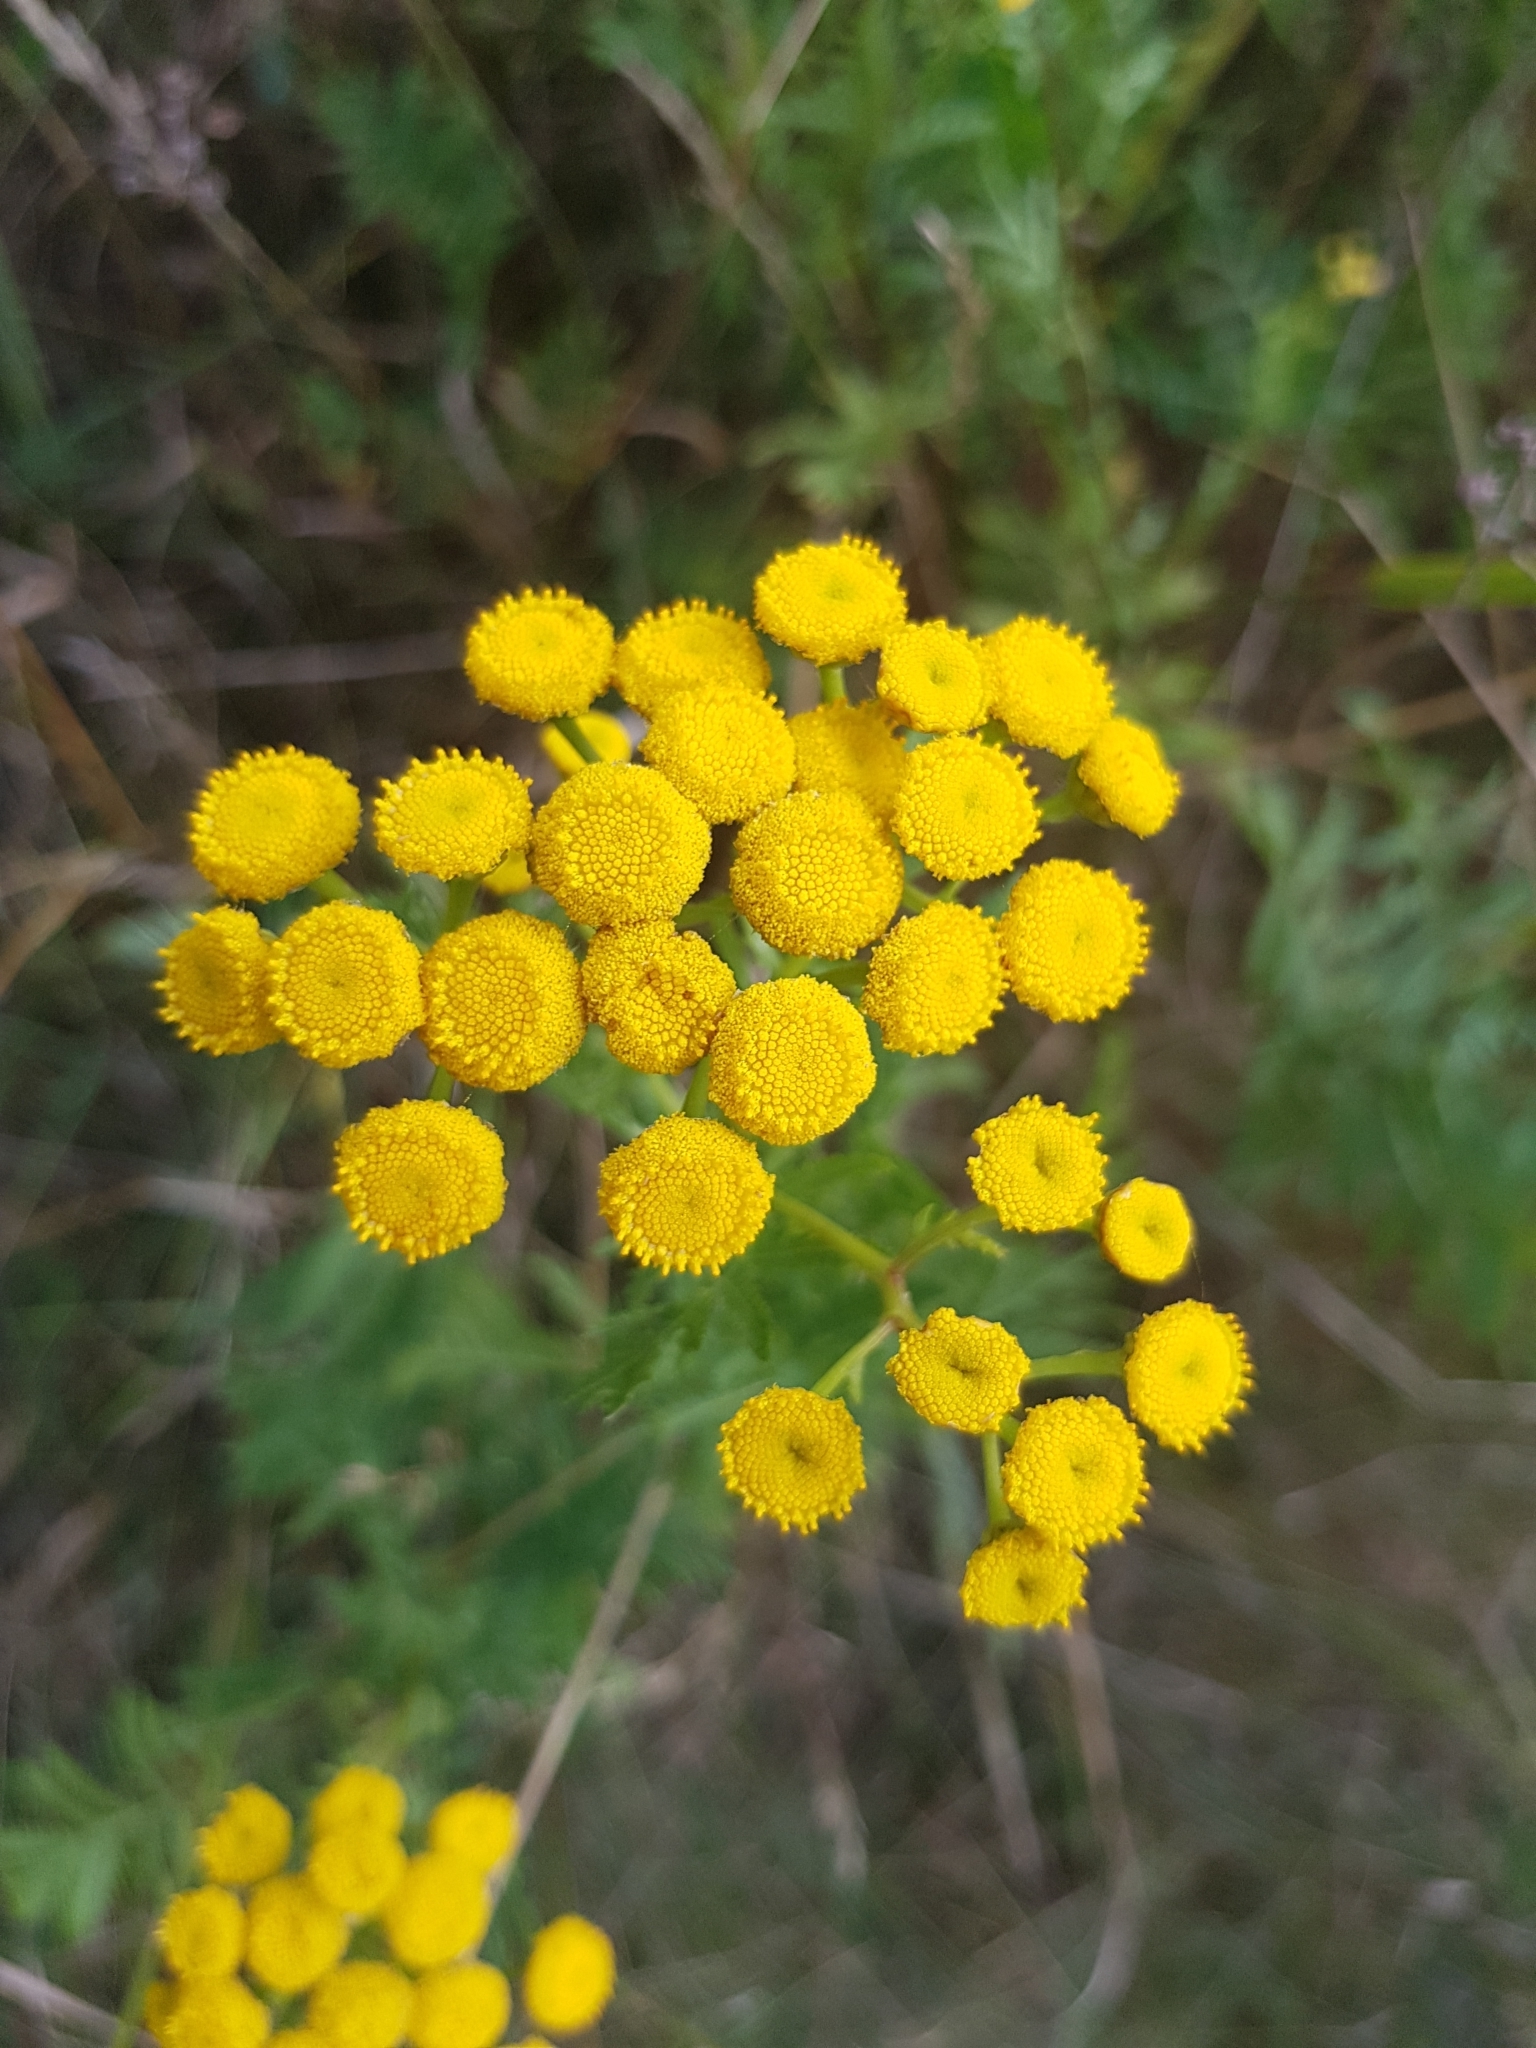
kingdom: Plantae
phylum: Tracheophyta
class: Magnoliopsida
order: Asterales
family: Asteraceae
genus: Tanacetum
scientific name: Tanacetum vulgare
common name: Common tansy
